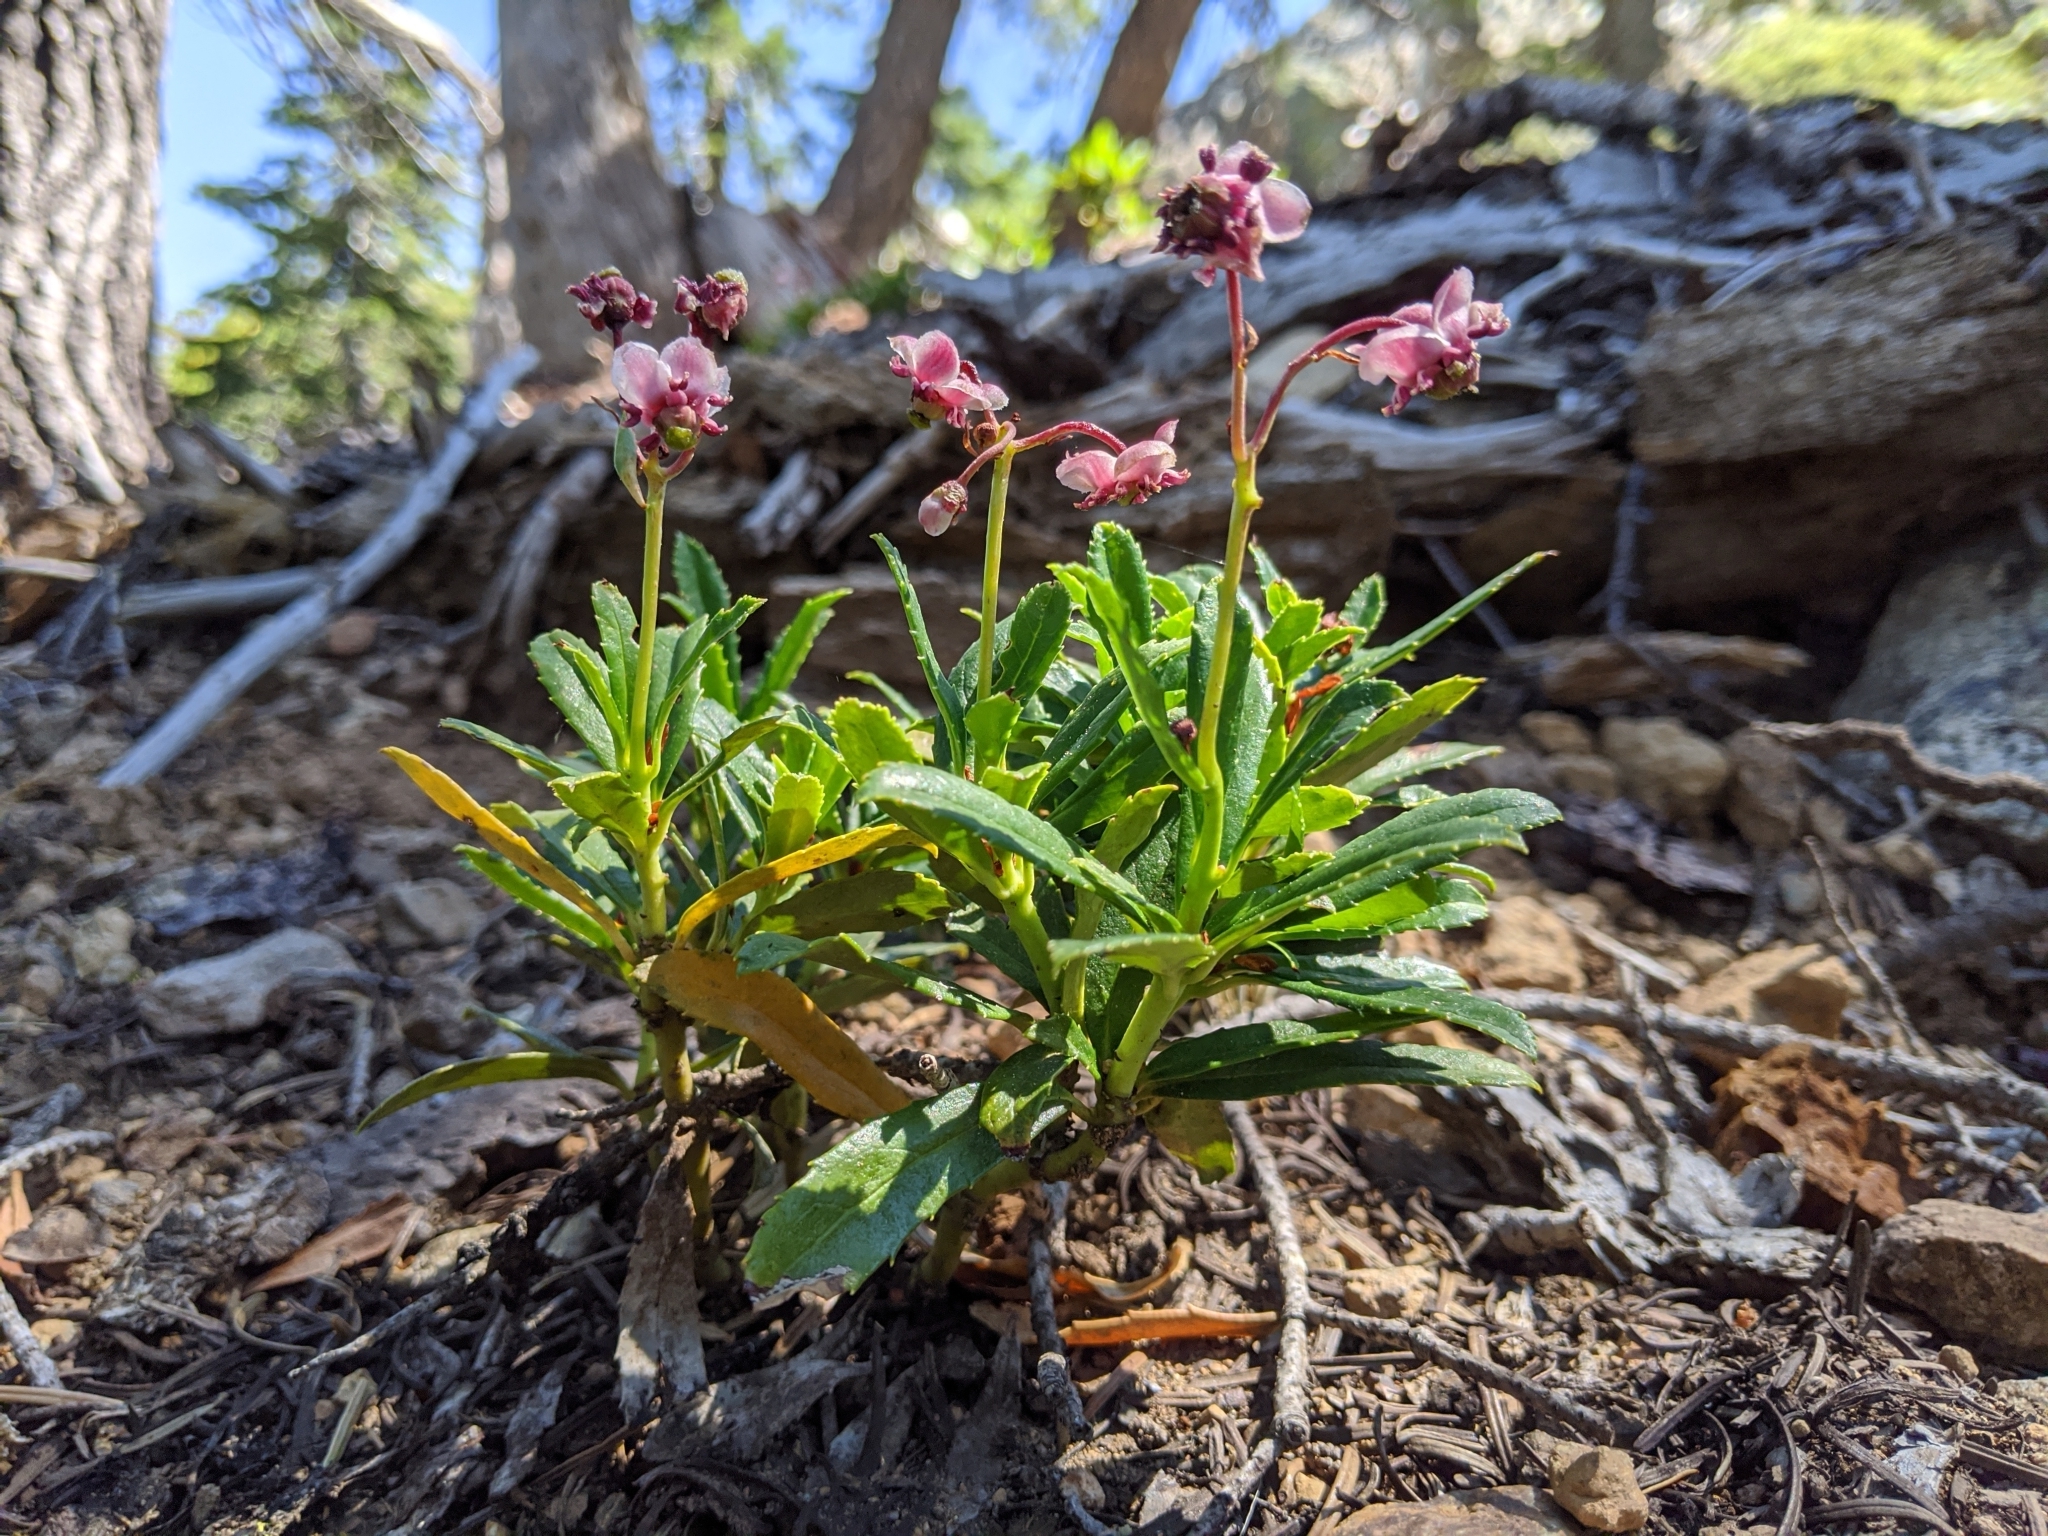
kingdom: Plantae
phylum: Tracheophyta
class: Magnoliopsida
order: Ericales
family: Ericaceae
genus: Chimaphila
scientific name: Chimaphila umbellata
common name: Pipsissewa
